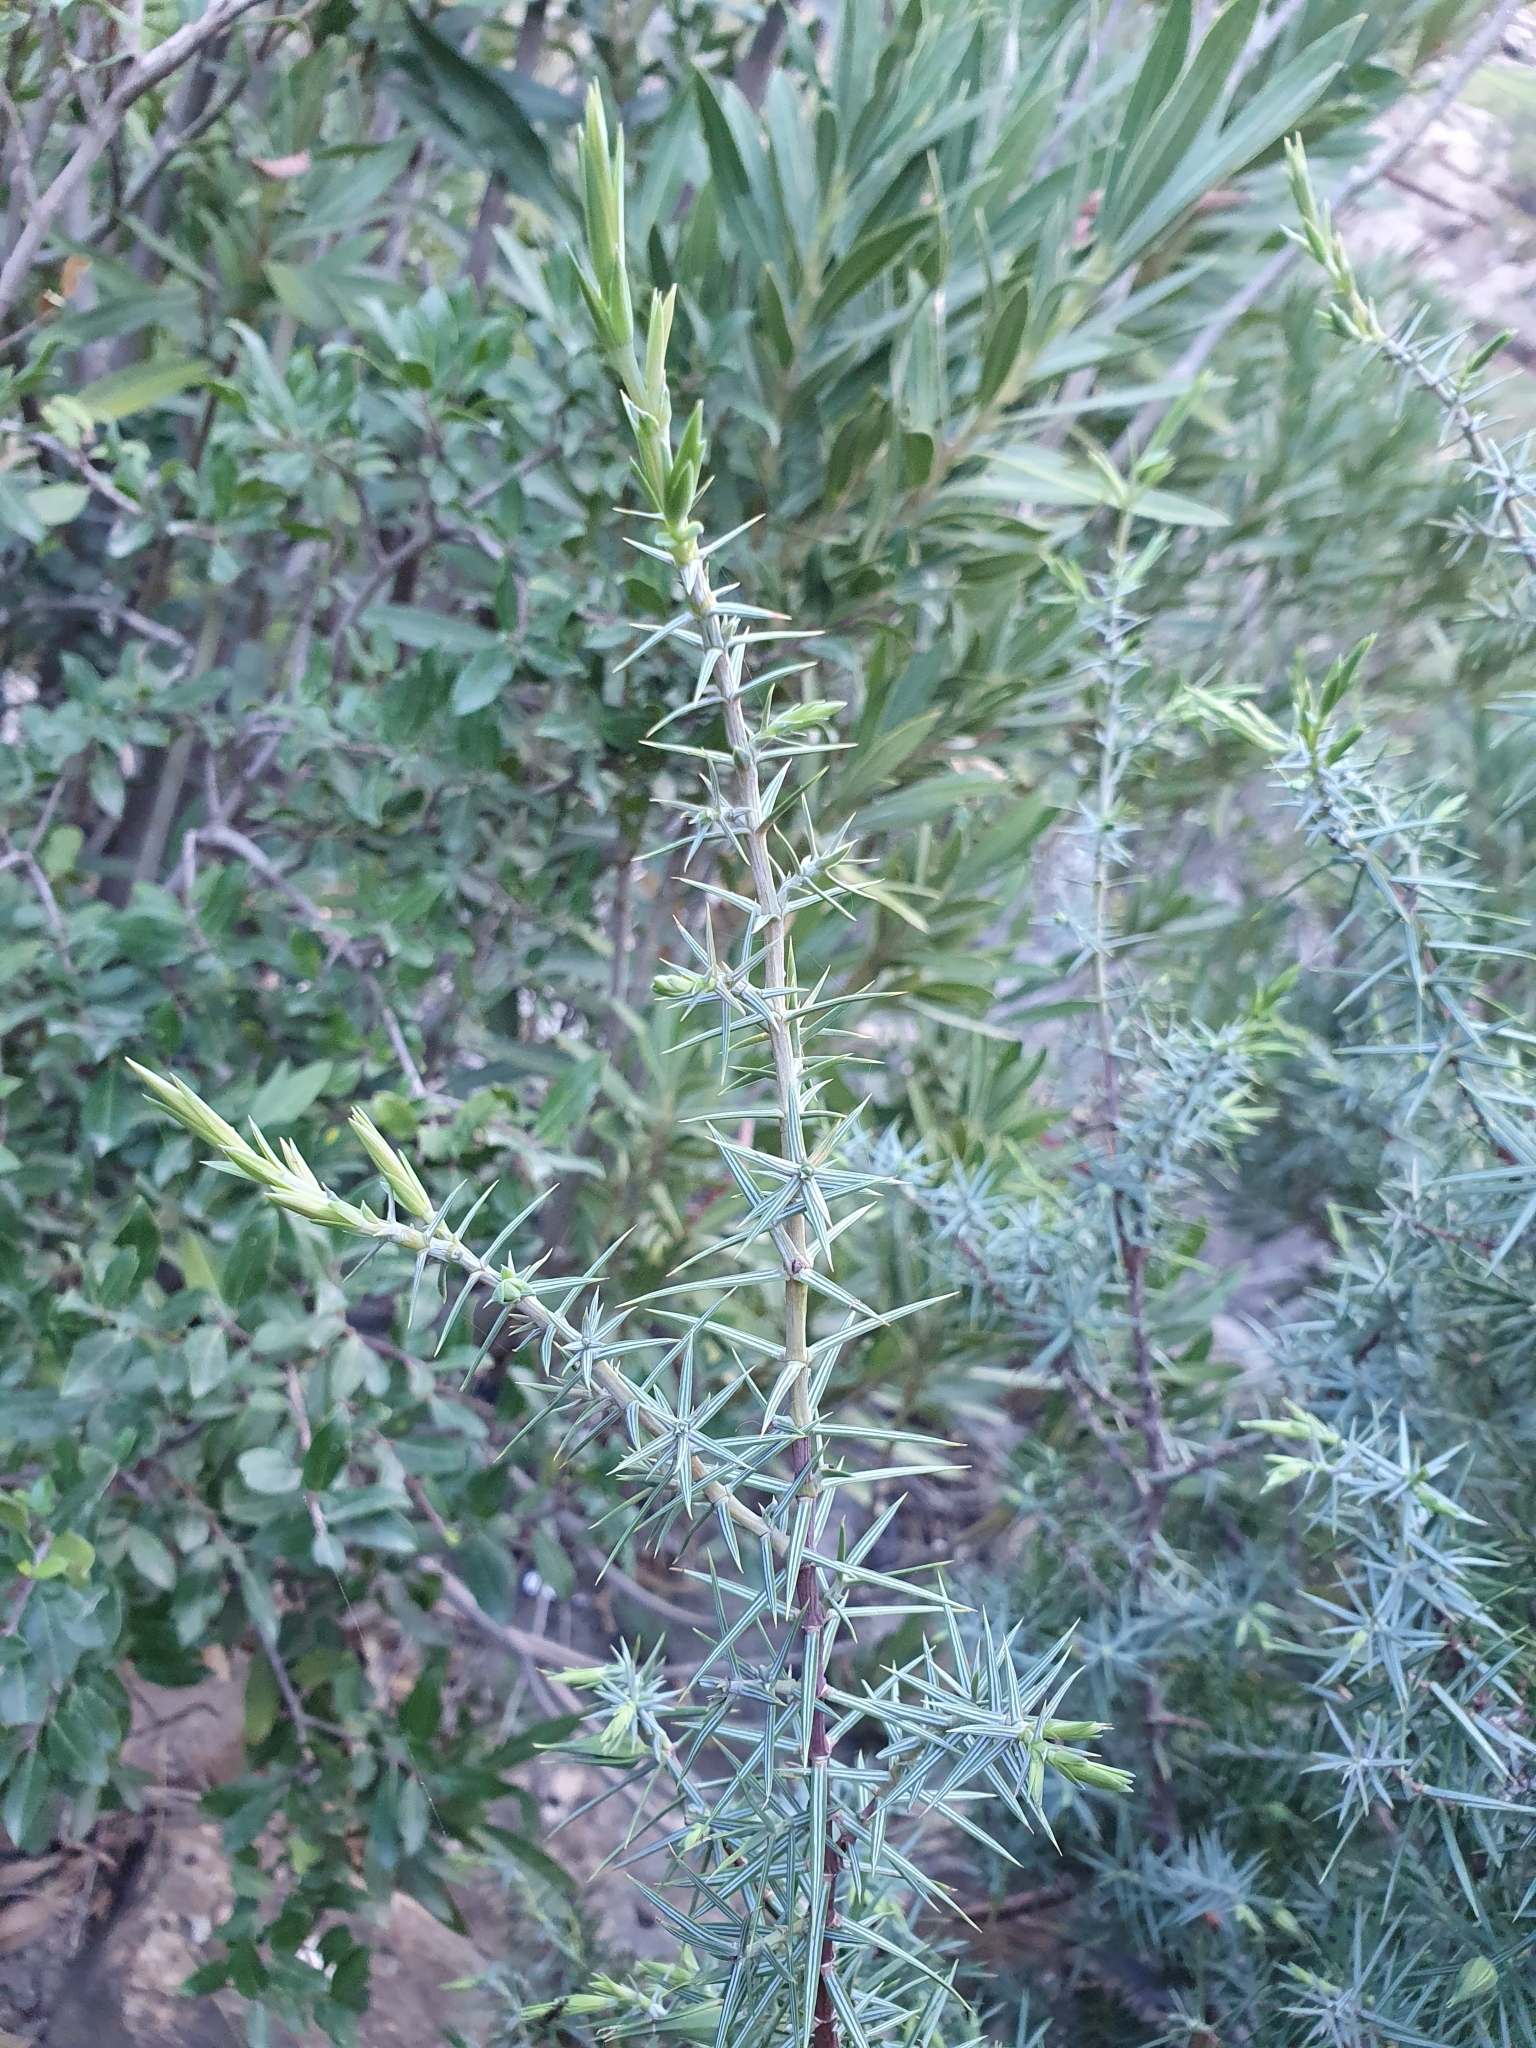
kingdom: Plantae
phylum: Tracheophyta
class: Pinopsida
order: Pinales
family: Cupressaceae
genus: Juniperus
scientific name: Juniperus oxycedrus
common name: Prickly juniper
